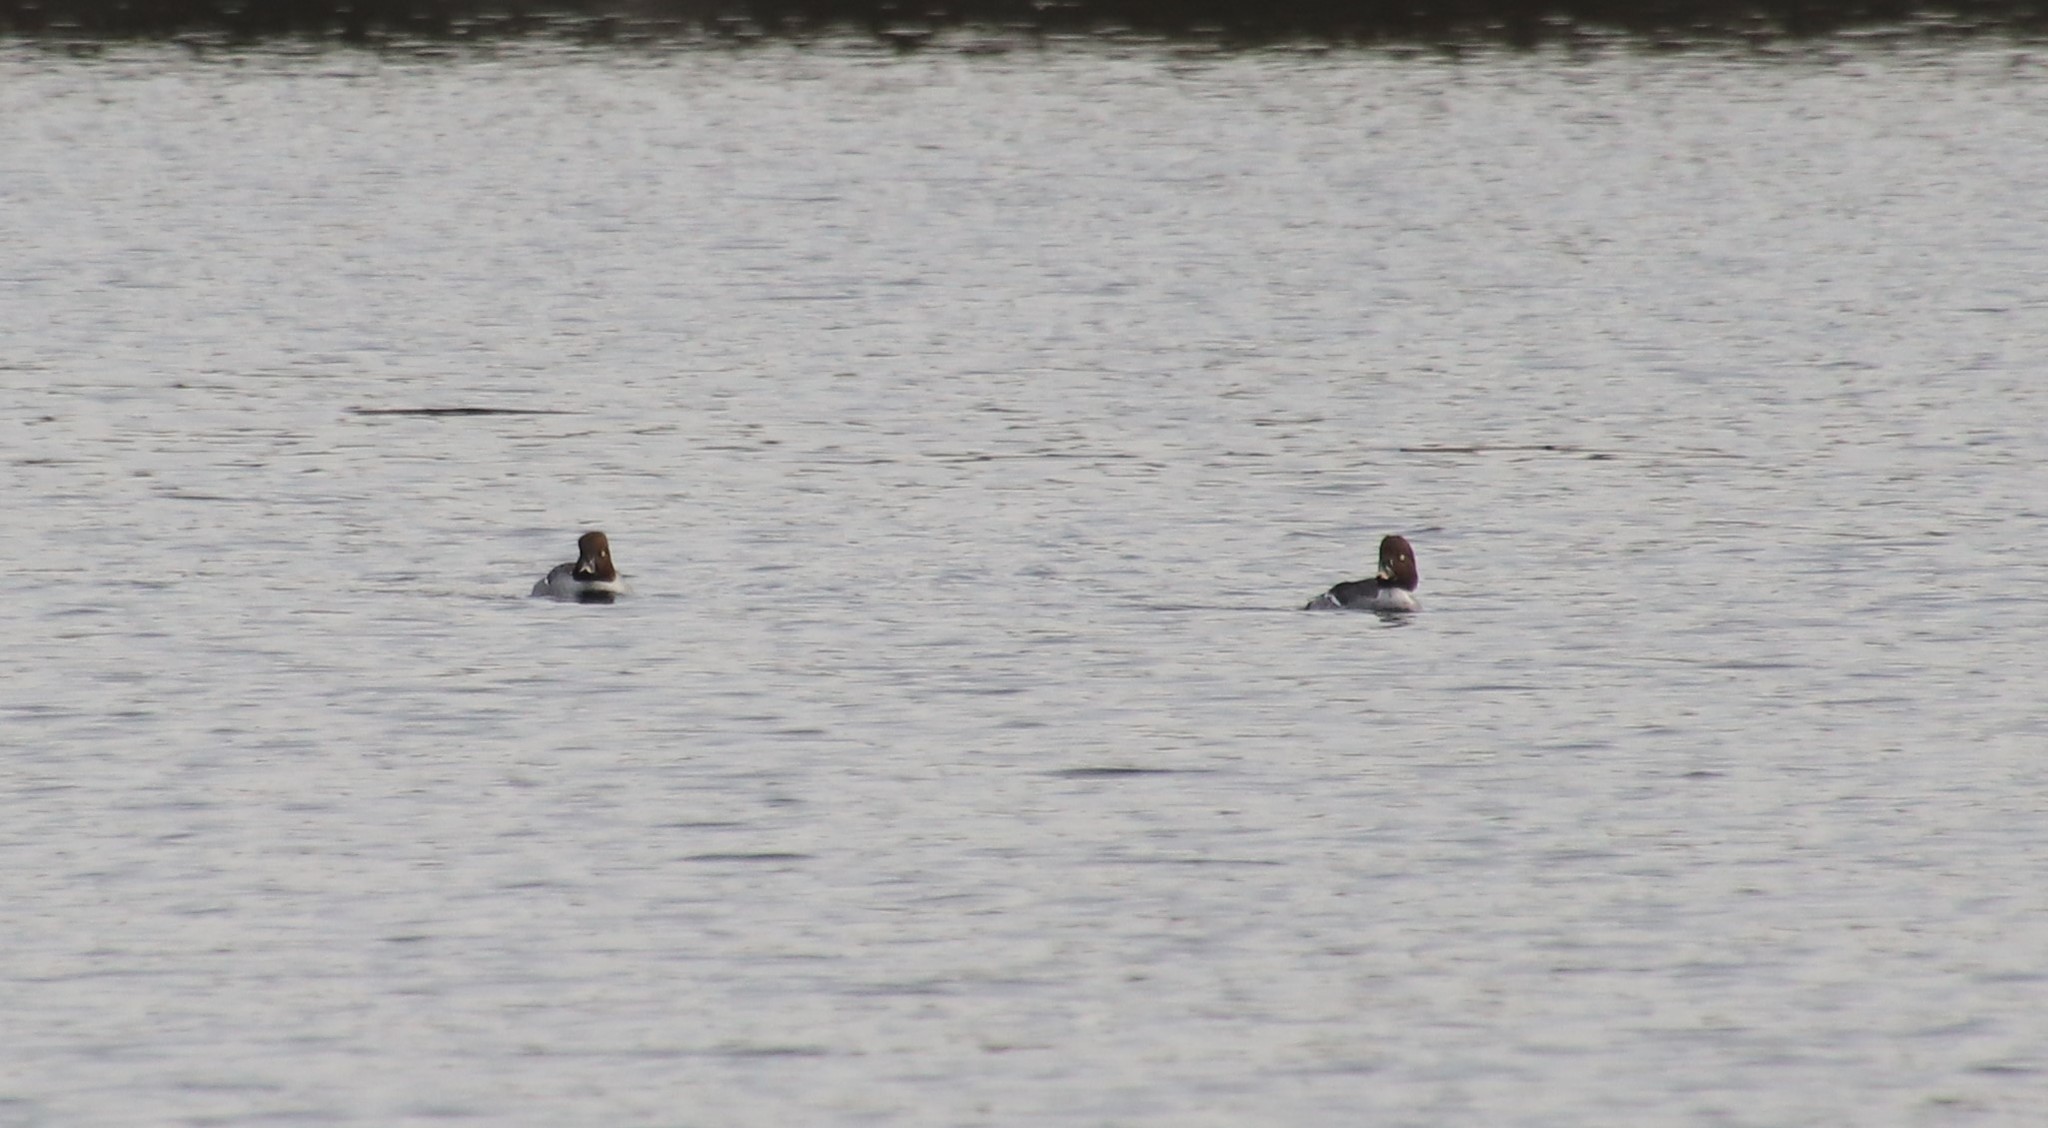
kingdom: Animalia
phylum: Chordata
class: Aves
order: Anseriformes
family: Anatidae
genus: Bucephala
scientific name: Bucephala clangula
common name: Common goldeneye
